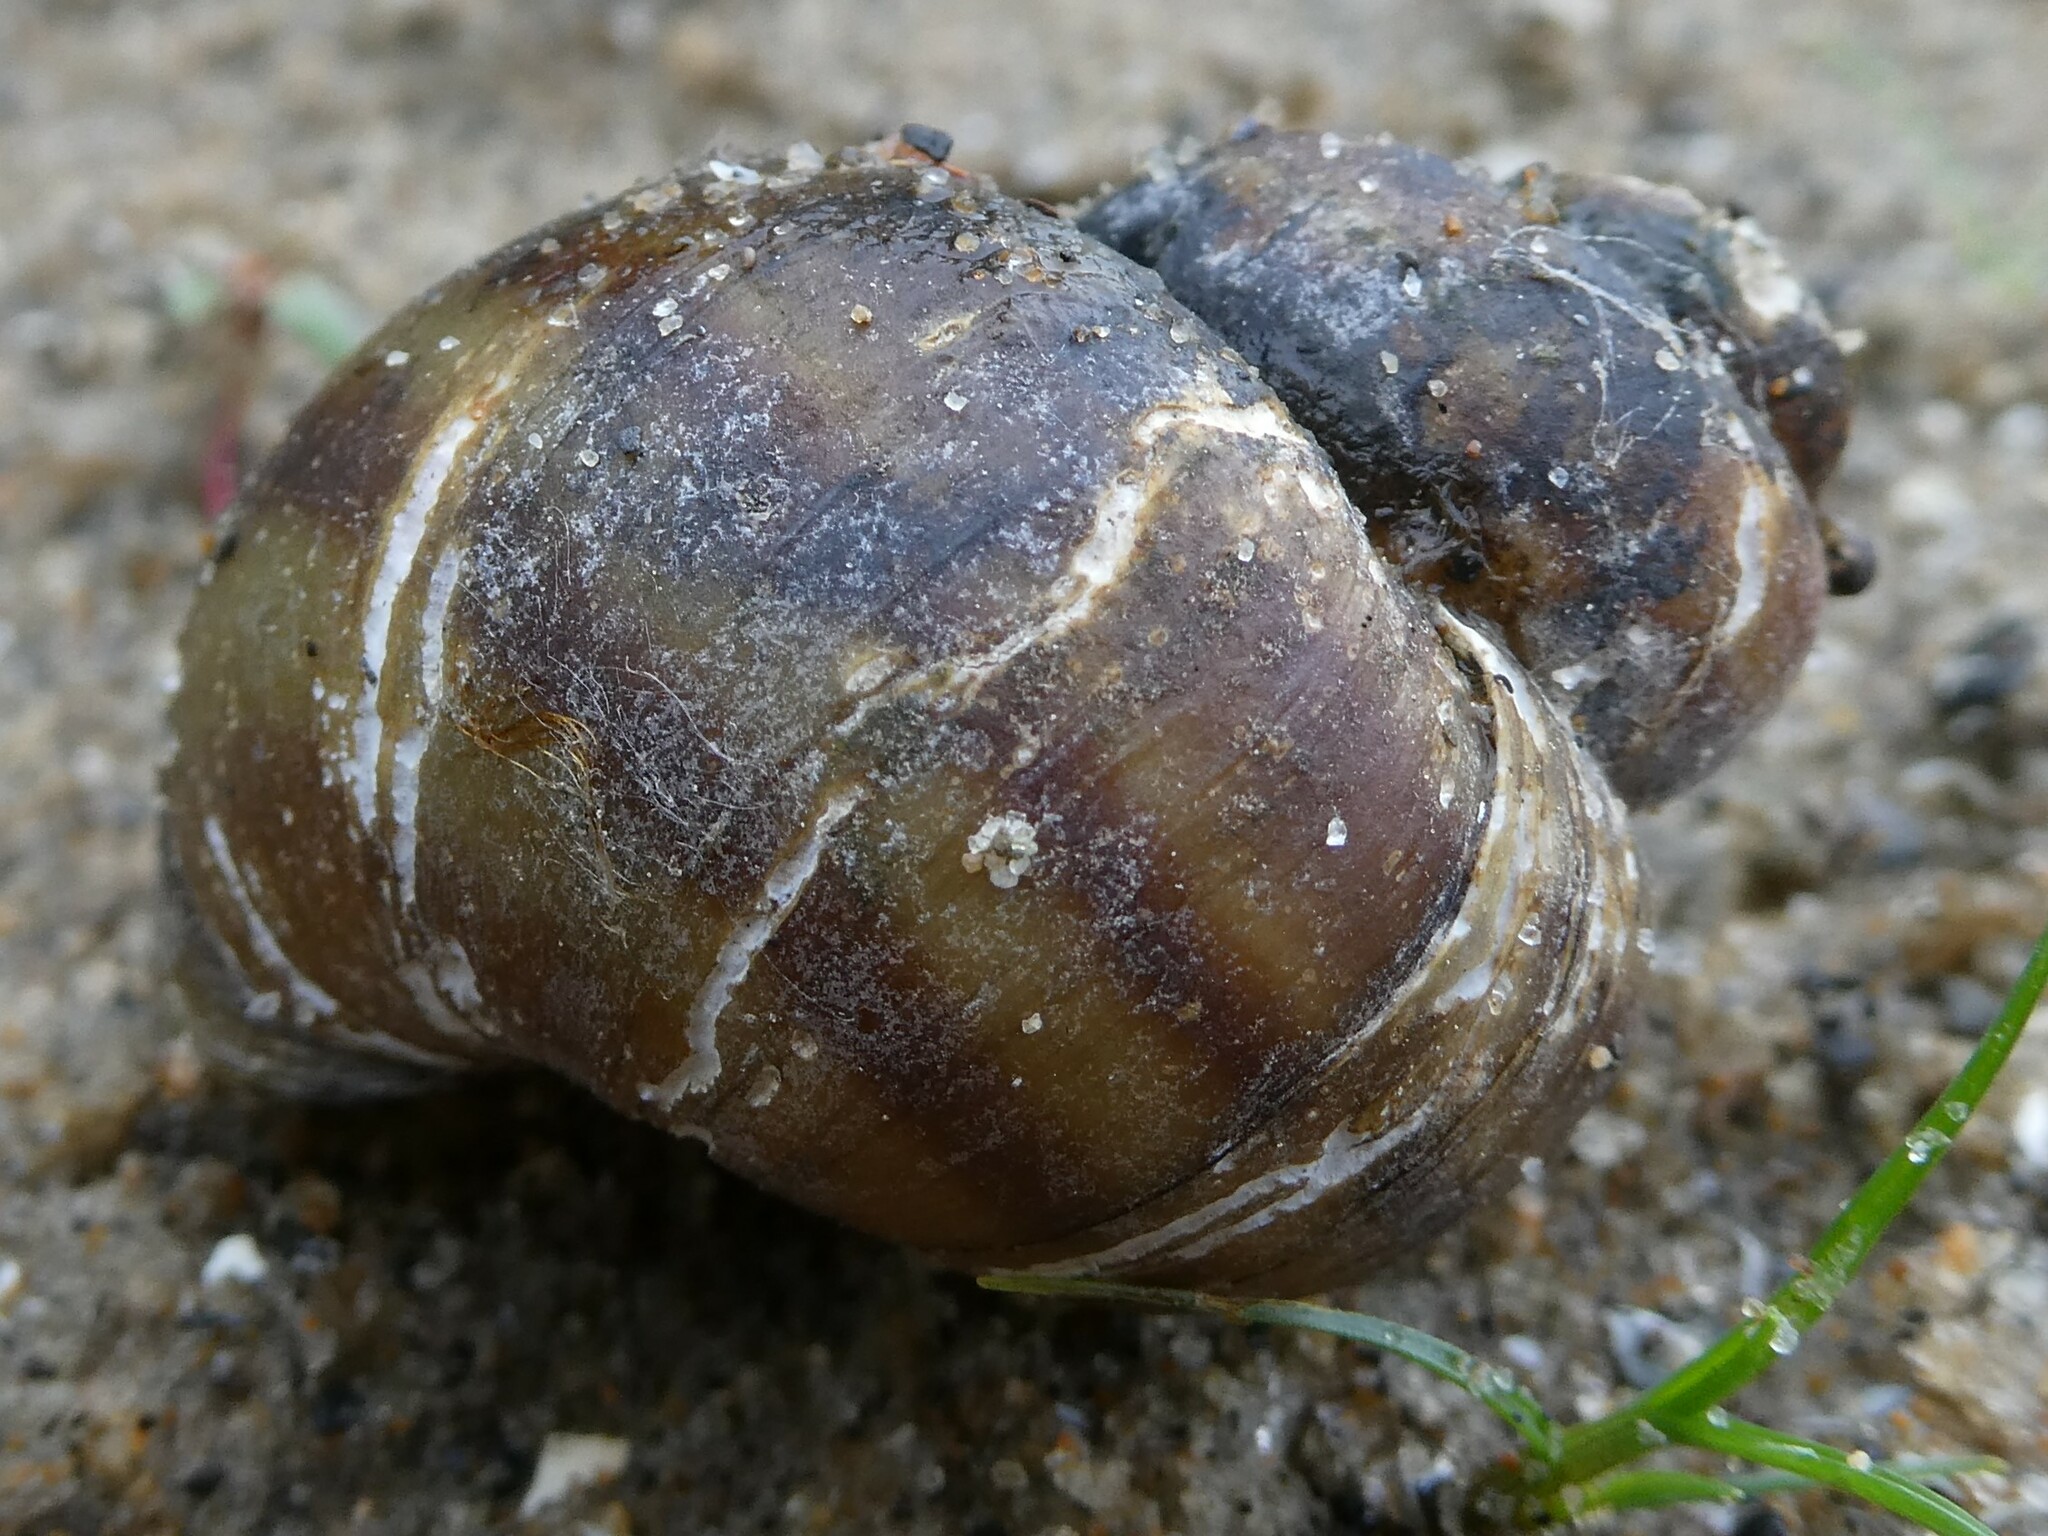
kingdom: Animalia
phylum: Mollusca
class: Gastropoda
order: Architaenioglossa
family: Viviparidae
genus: Callinina
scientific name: Callinina georgiana
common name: Banded mystery snail
